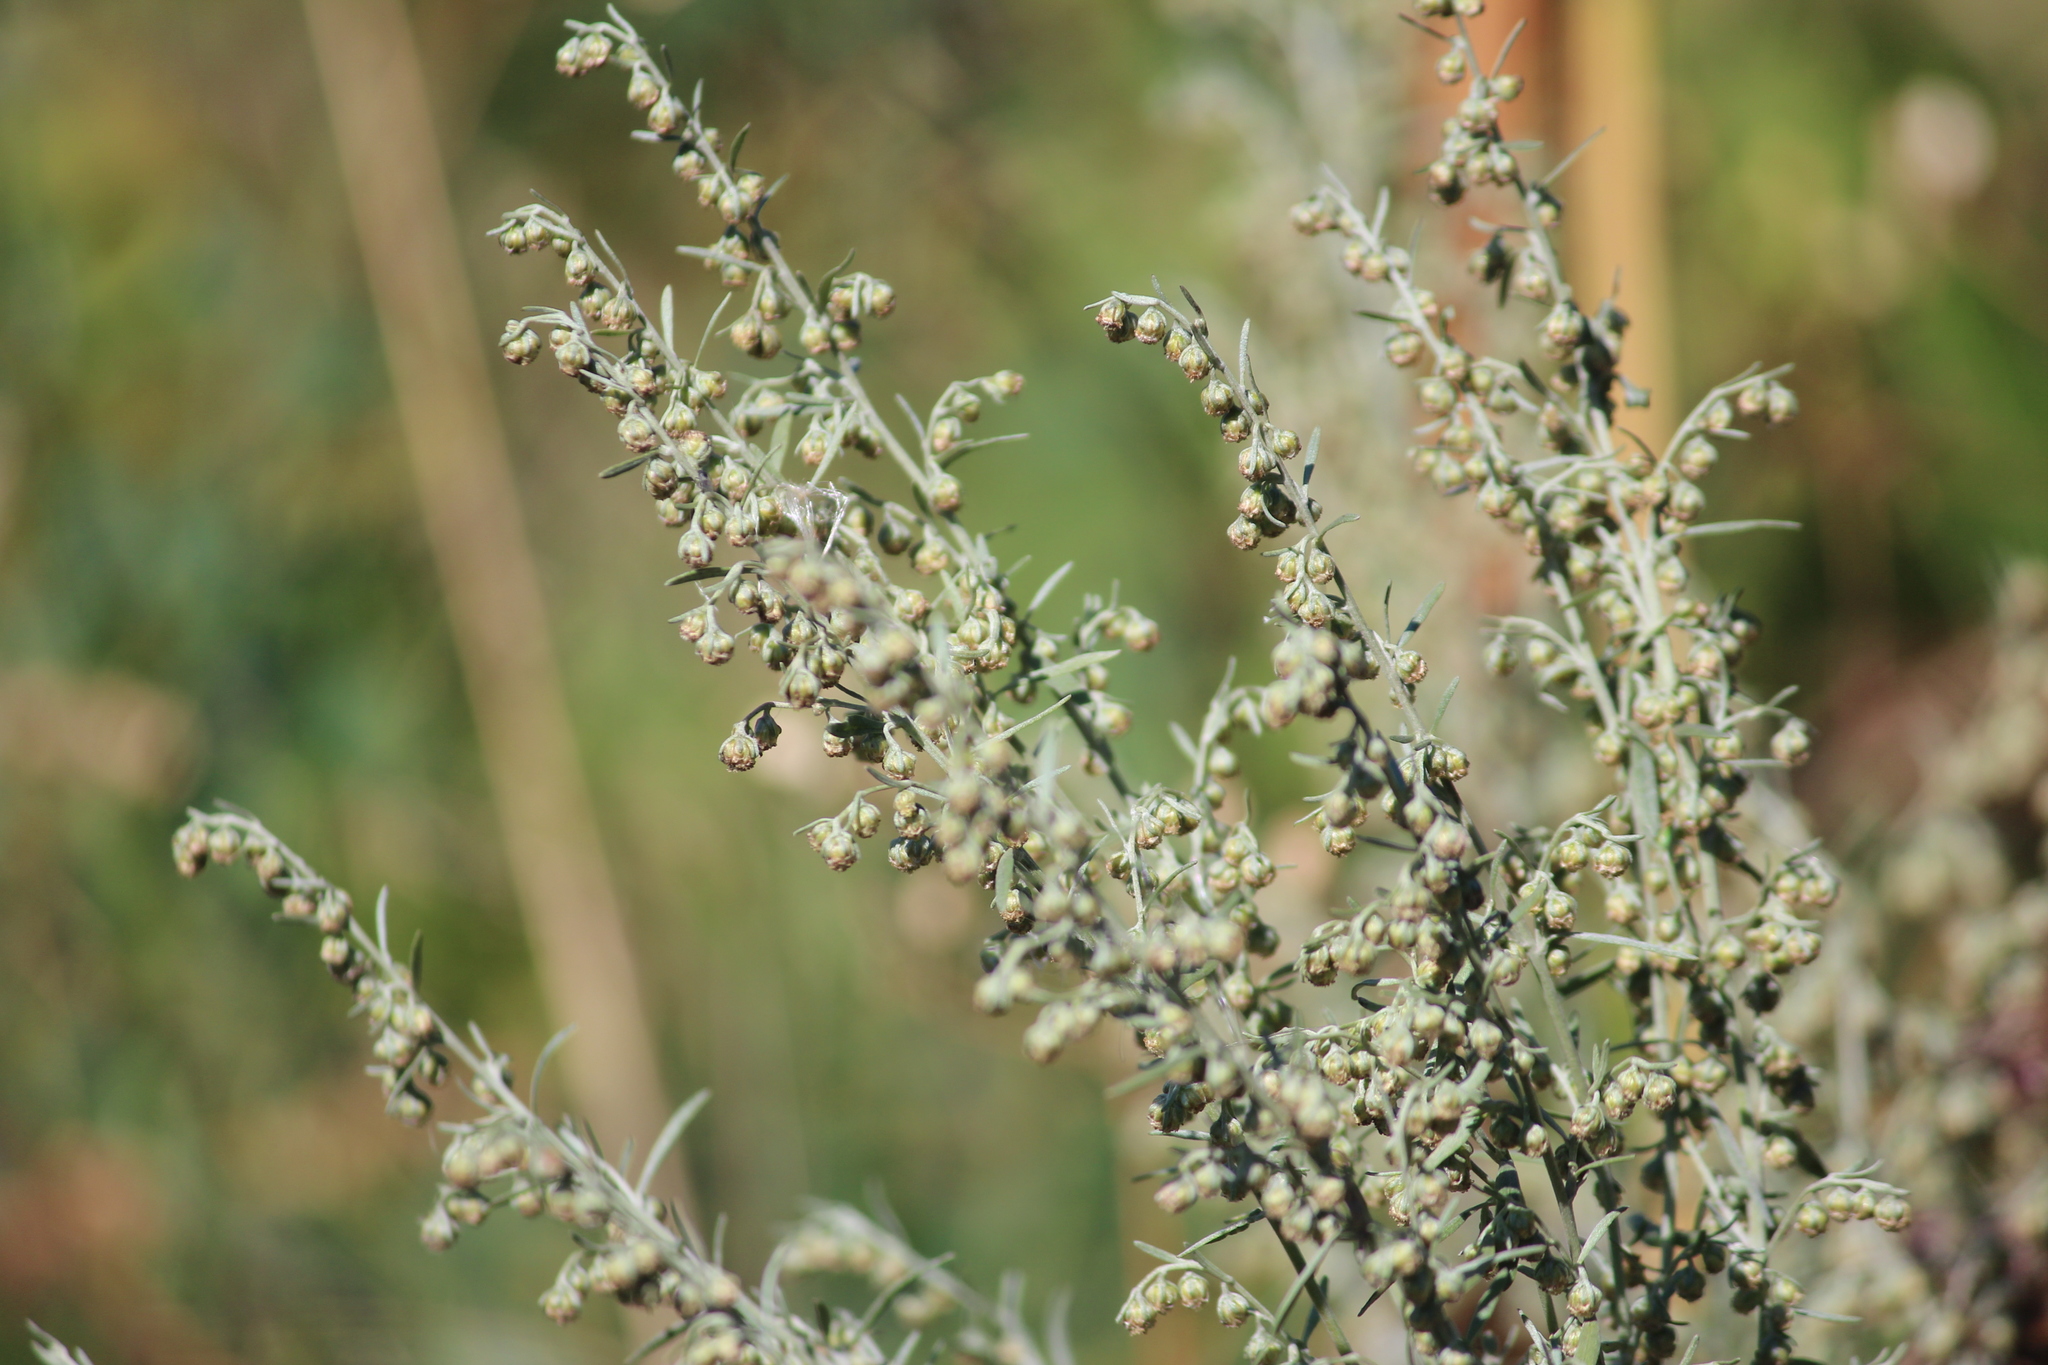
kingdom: Plantae
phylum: Tracheophyta
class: Magnoliopsida
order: Asterales
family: Asteraceae
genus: Artemisia
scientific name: Artemisia absinthium
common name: Wormwood
